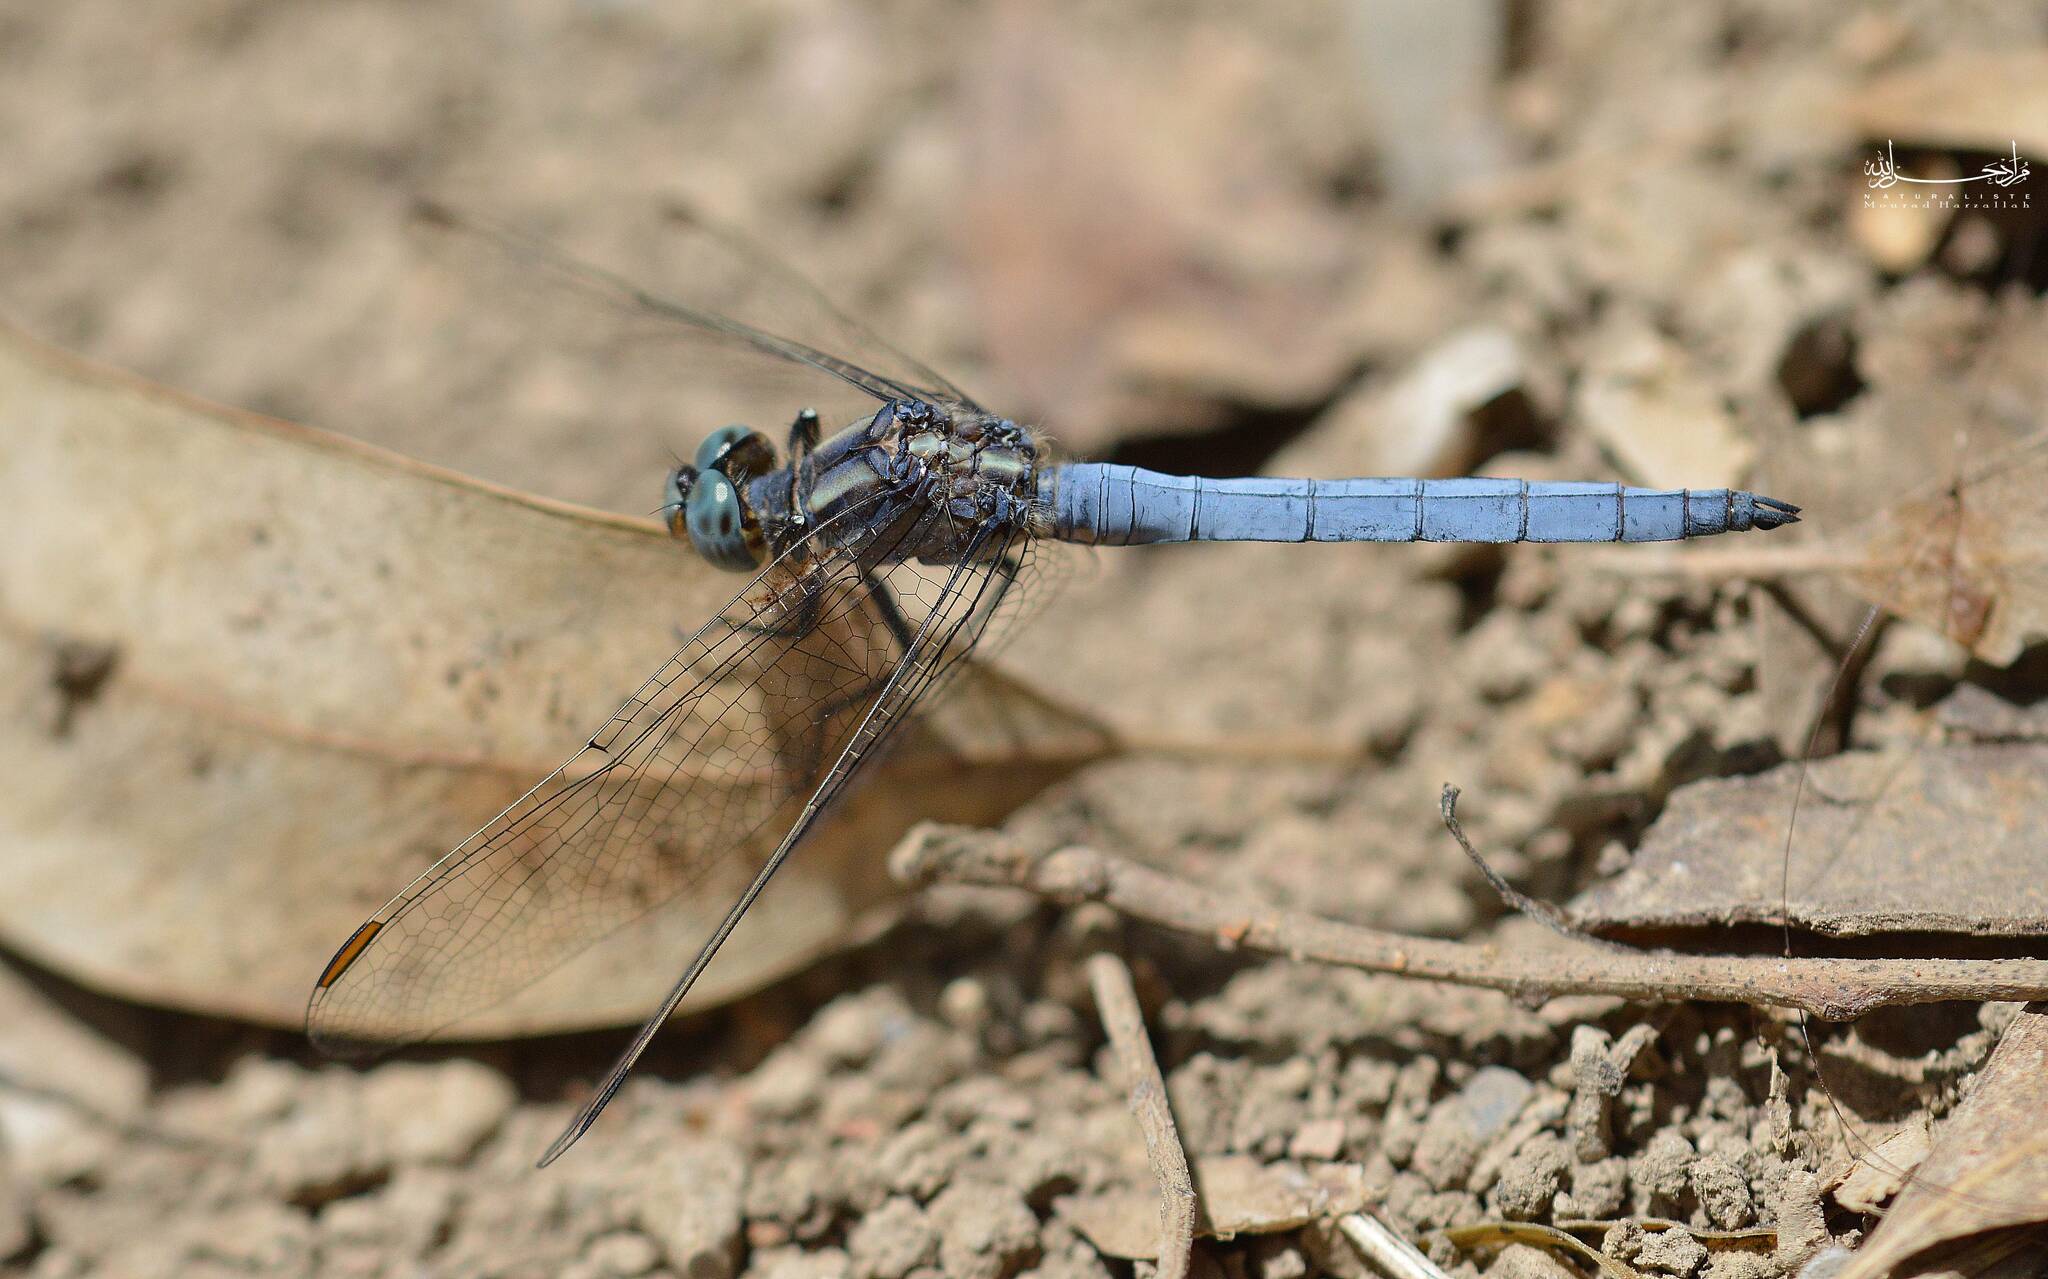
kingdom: Animalia
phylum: Arthropoda
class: Insecta
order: Odonata
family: Libellulidae
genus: Orthetrum
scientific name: Orthetrum coerulescens
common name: Keeled skimmer
